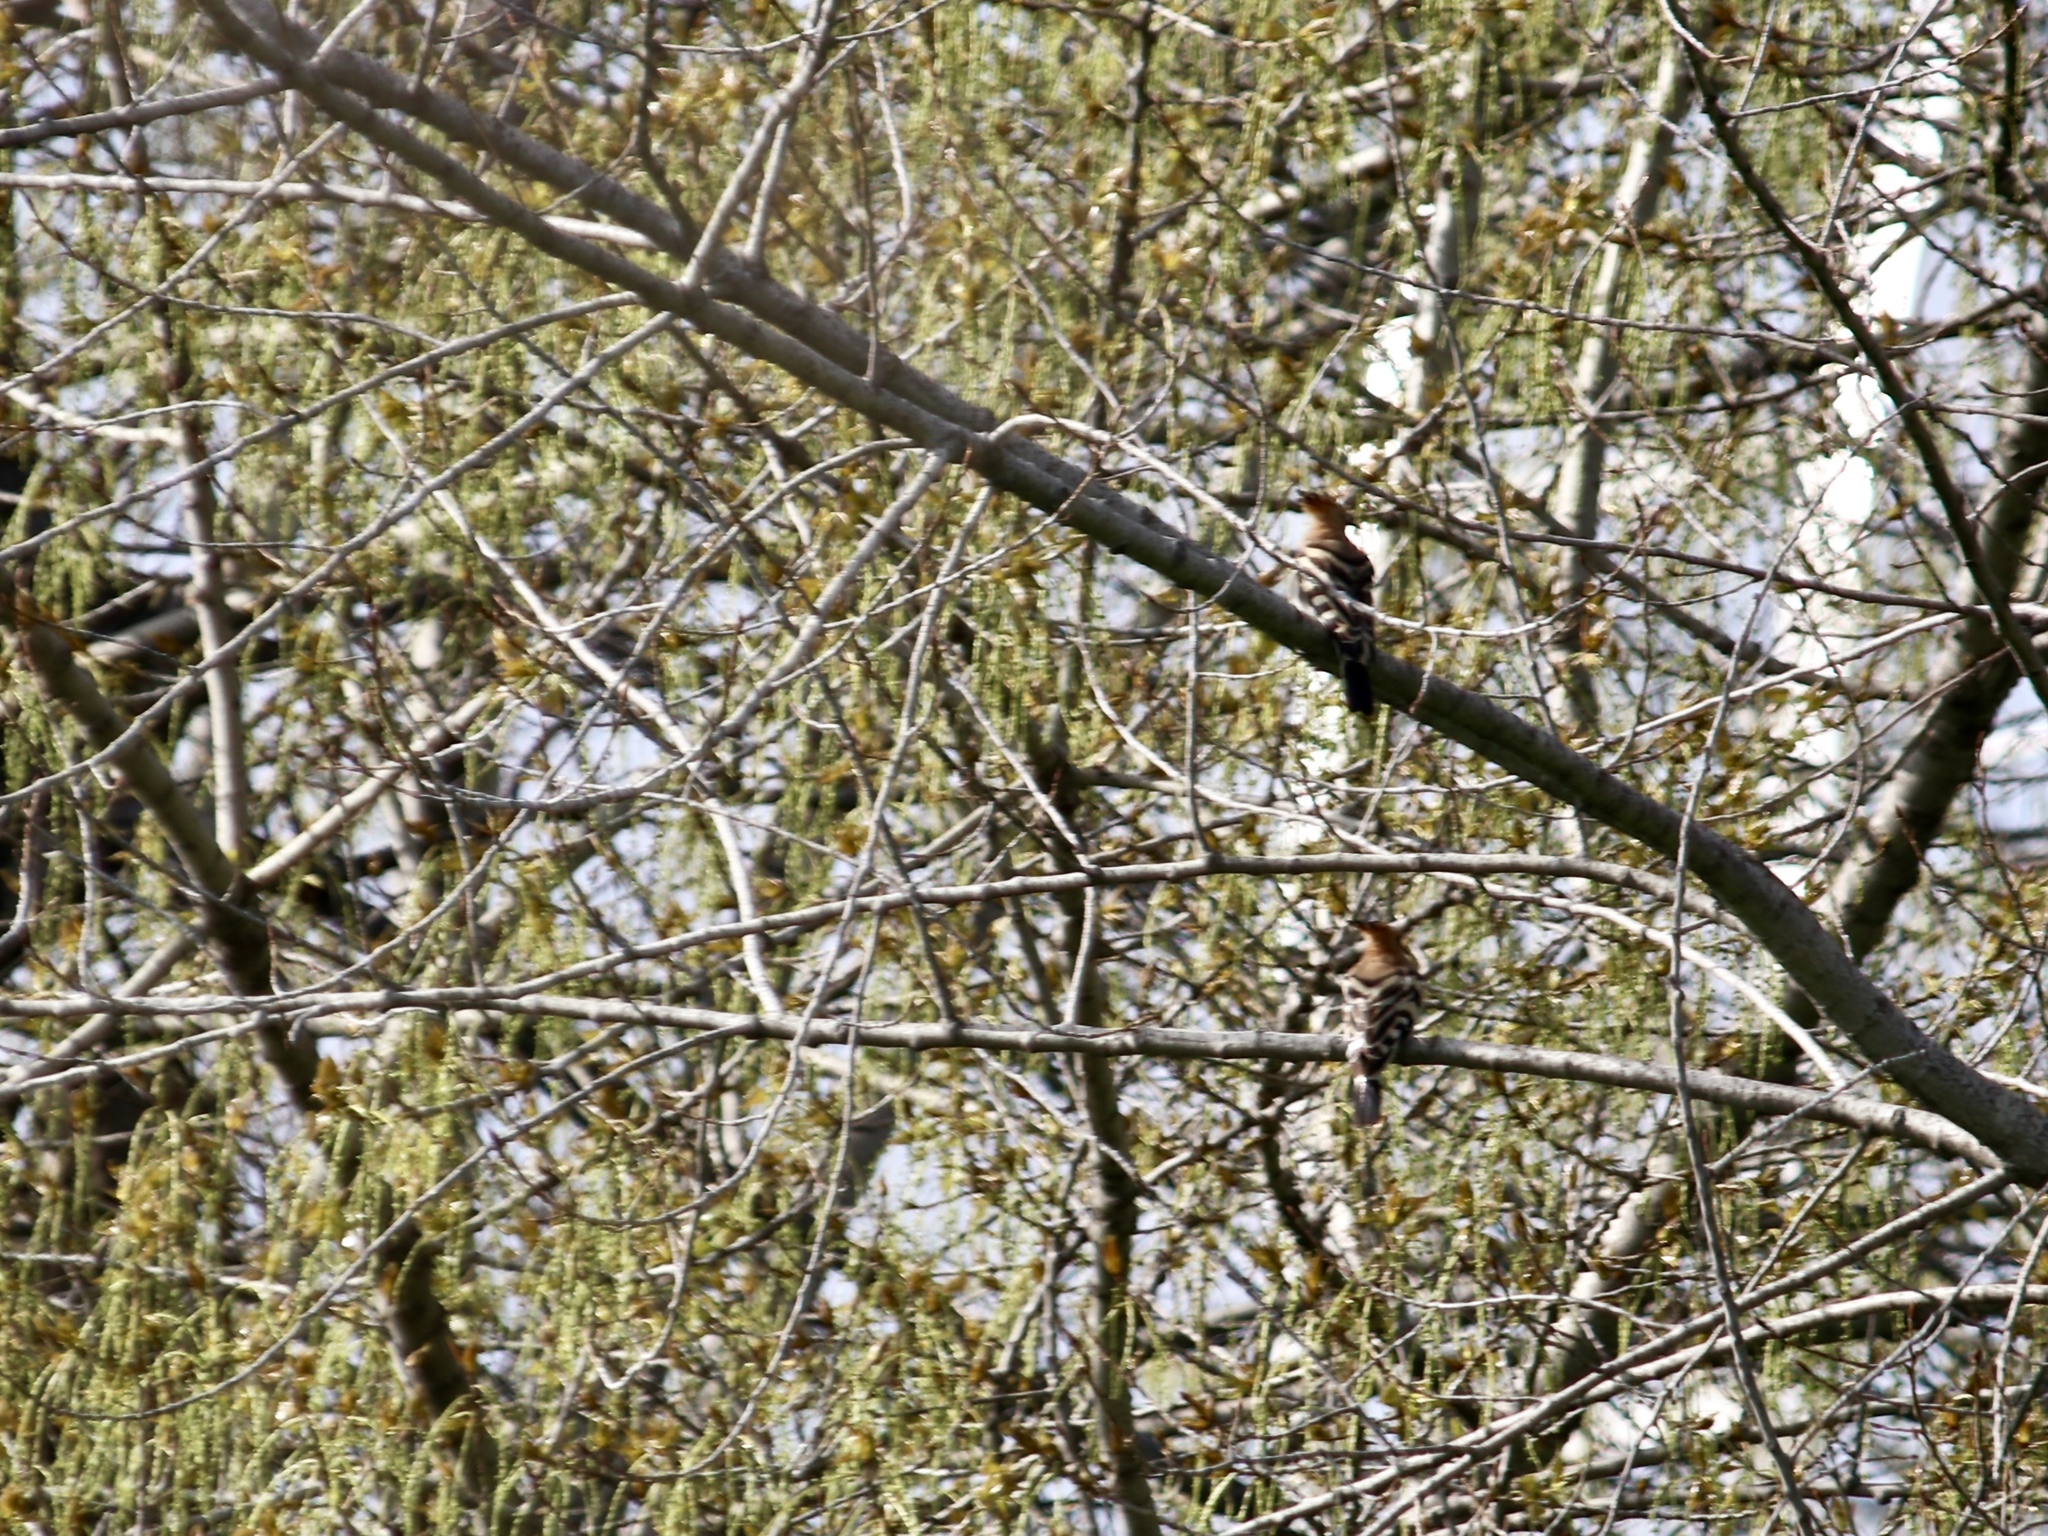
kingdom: Animalia
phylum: Chordata
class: Aves
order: Bucerotiformes
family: Upupidae
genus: Upupa
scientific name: Upupa epops
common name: Eurasian hoopoe
